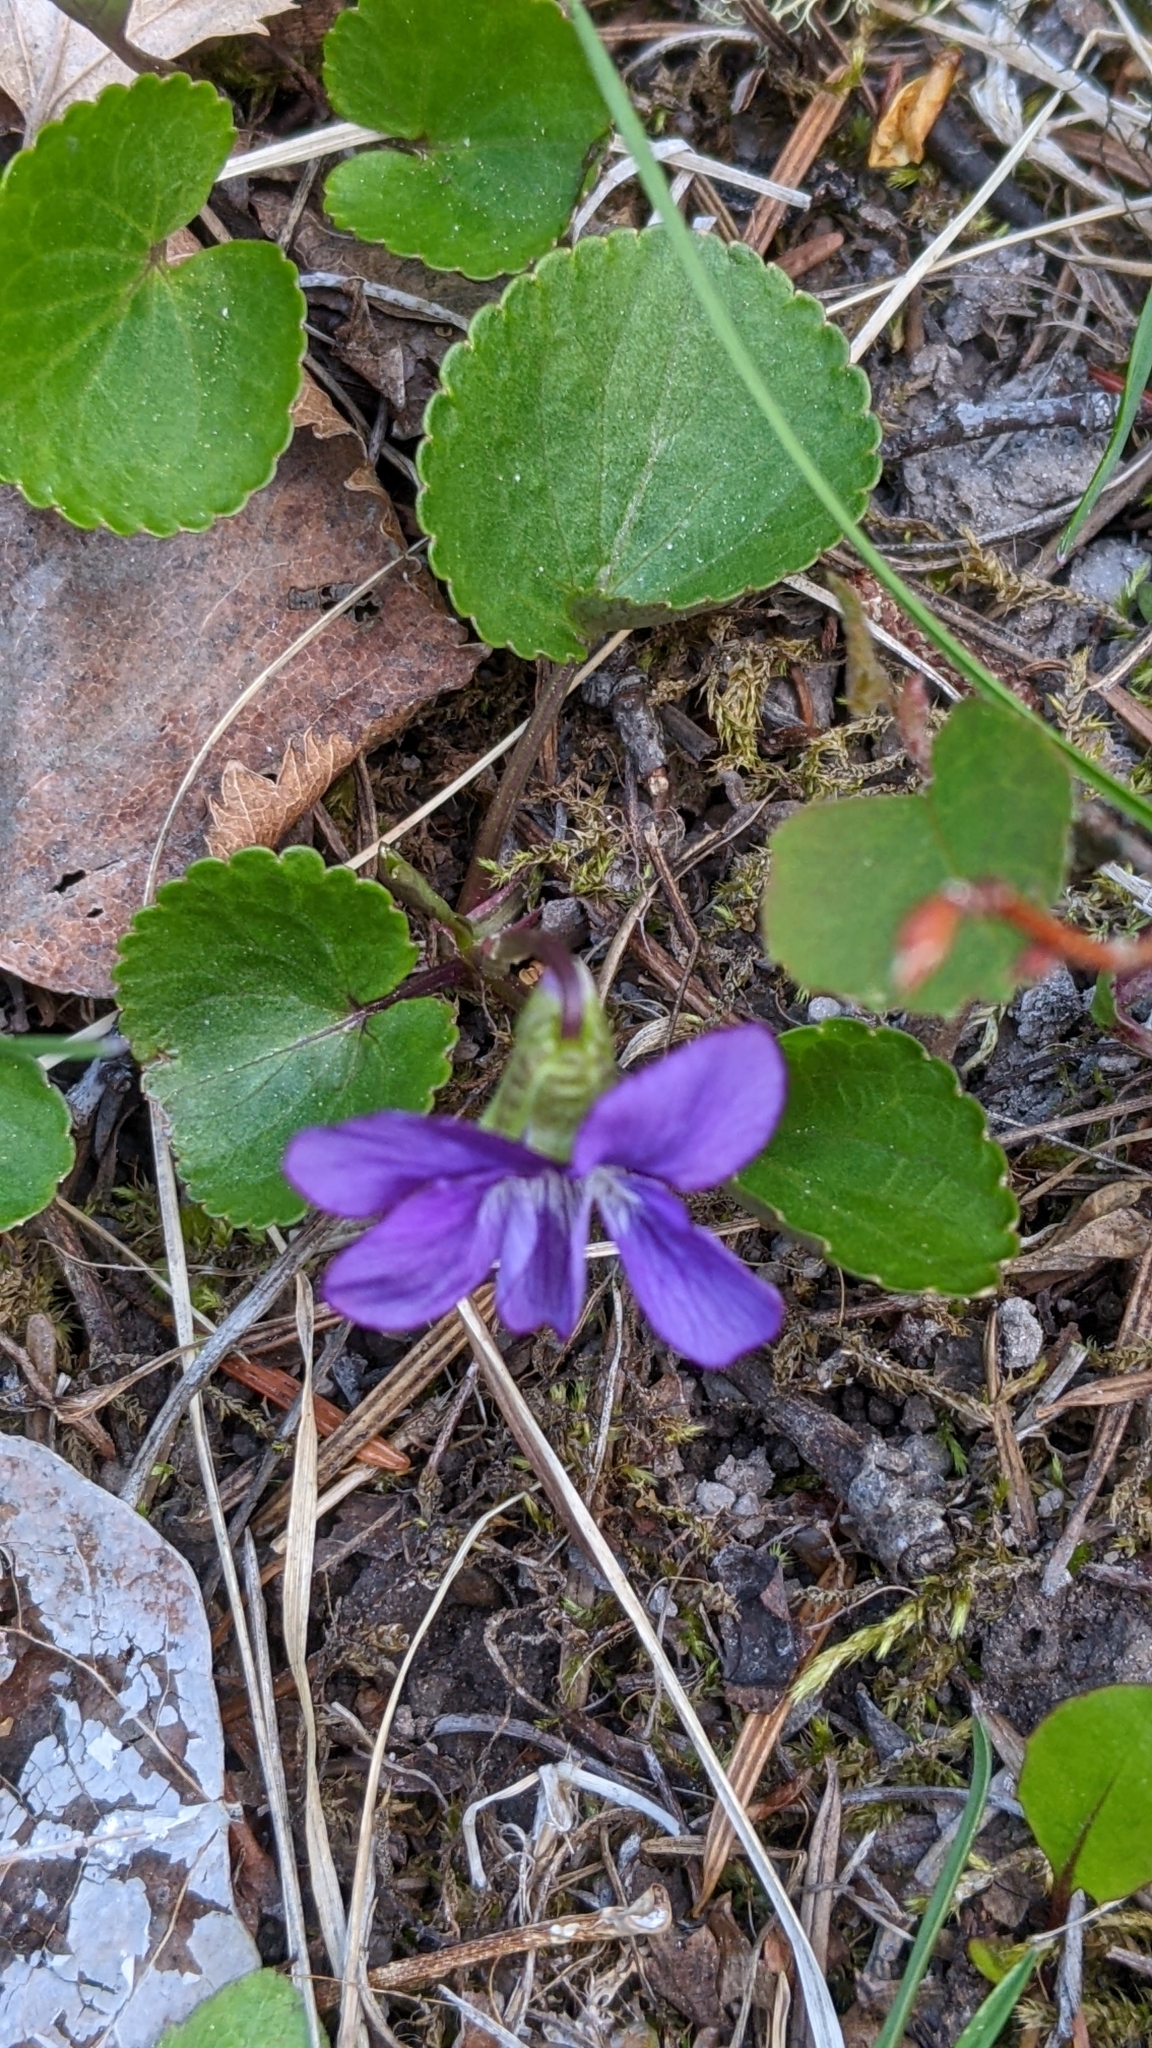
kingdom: Plantae
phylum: Tracheophyta
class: Magnoliopsida
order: Malpighiales
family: Violaceae
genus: Viola
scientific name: Viola nephrophylla
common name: Blue meadow violet
